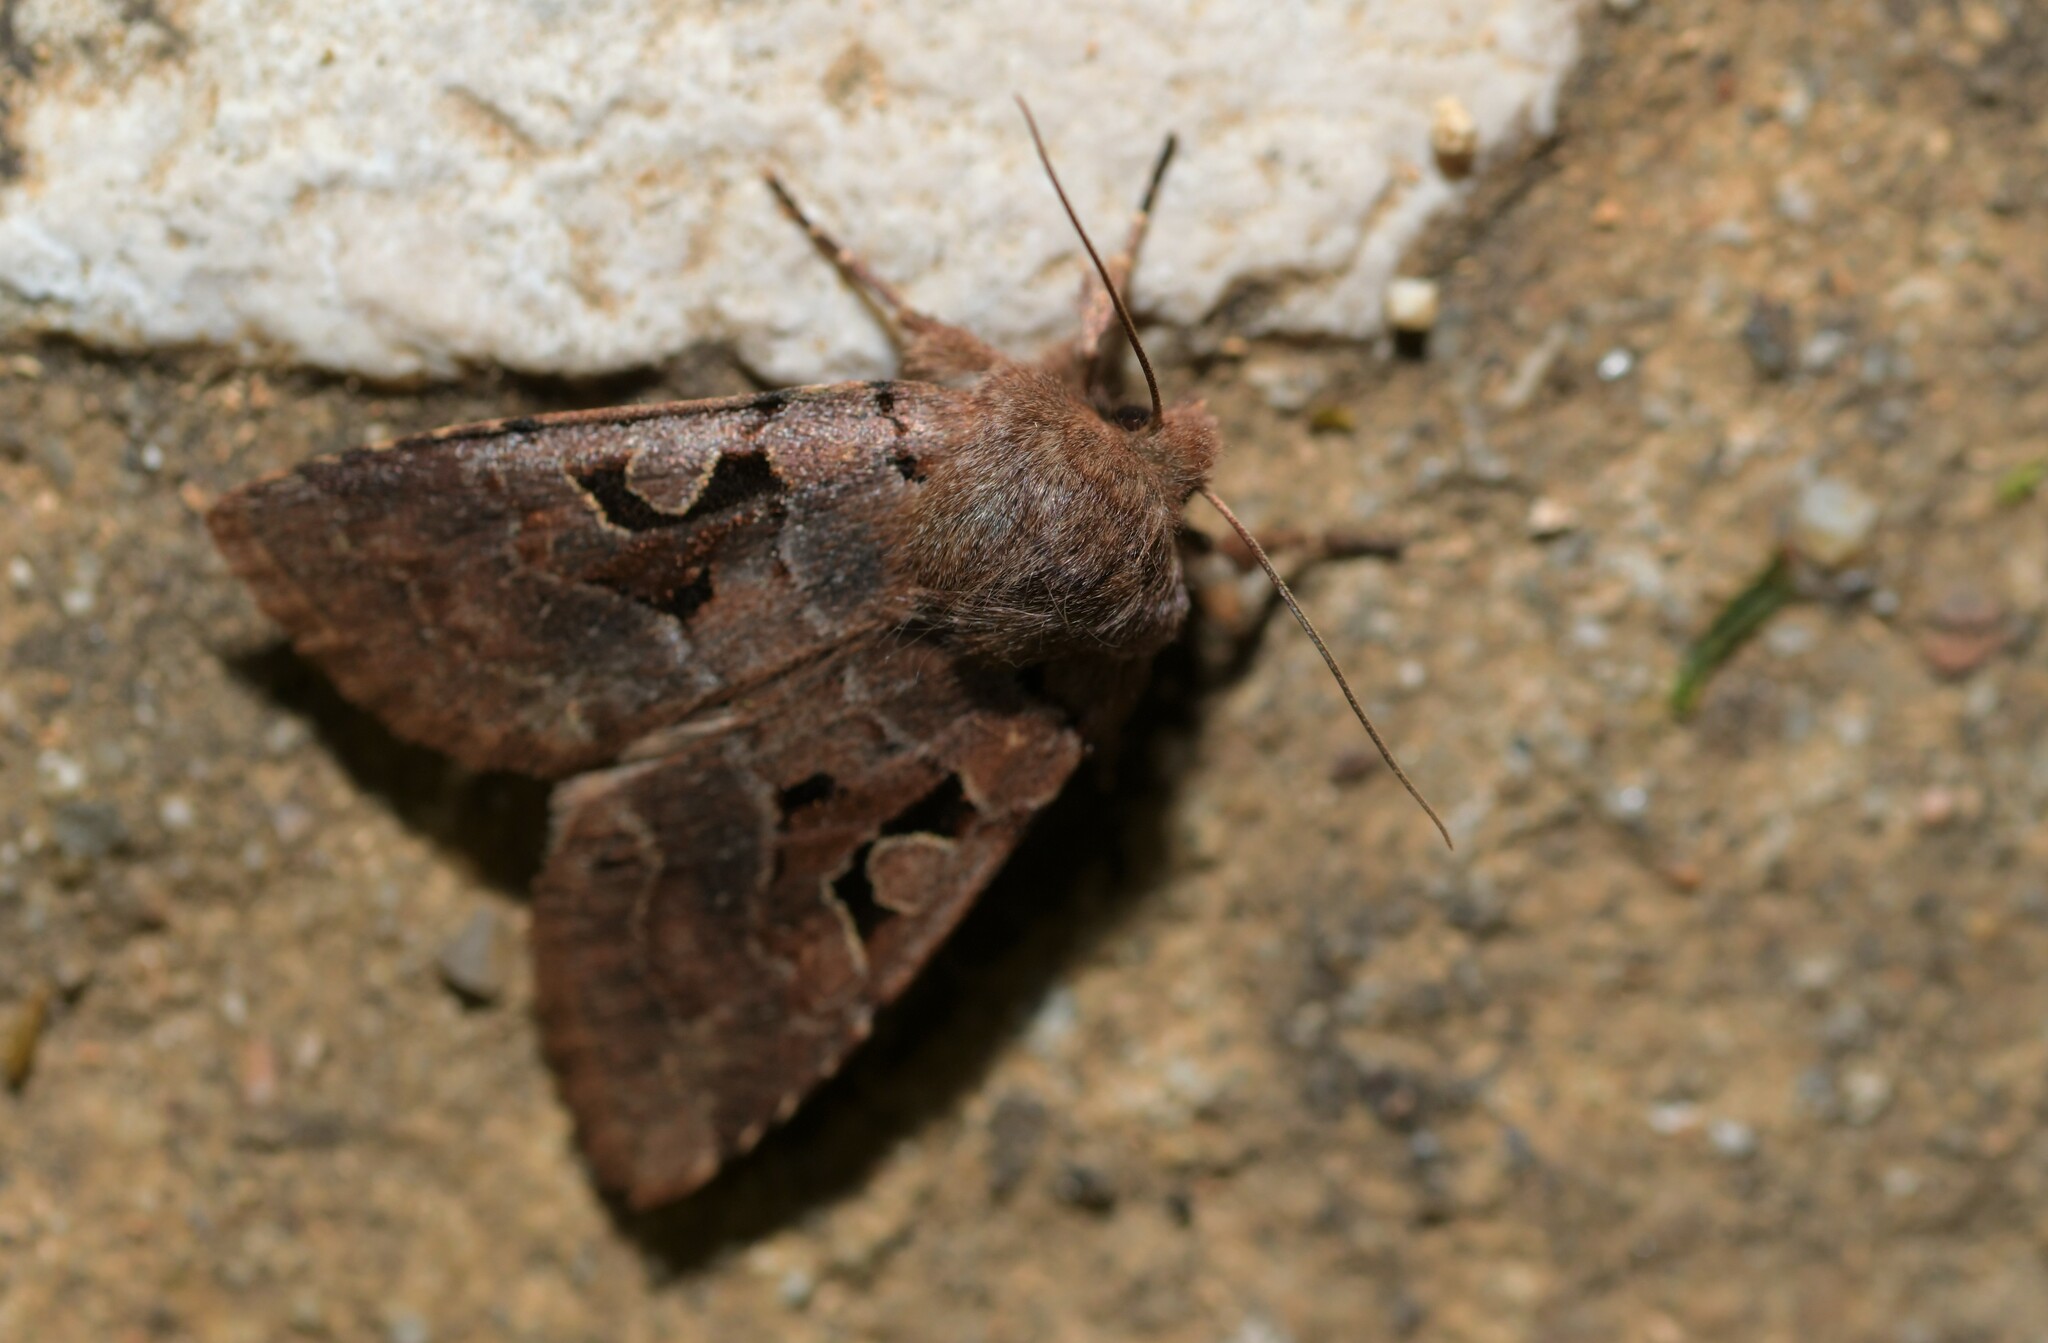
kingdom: Animalia
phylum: Arthropoda
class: Insecta
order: Lepidoptera
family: Noctuidae
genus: Orthosia
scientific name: Orthosia gothica
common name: Hebrew character
